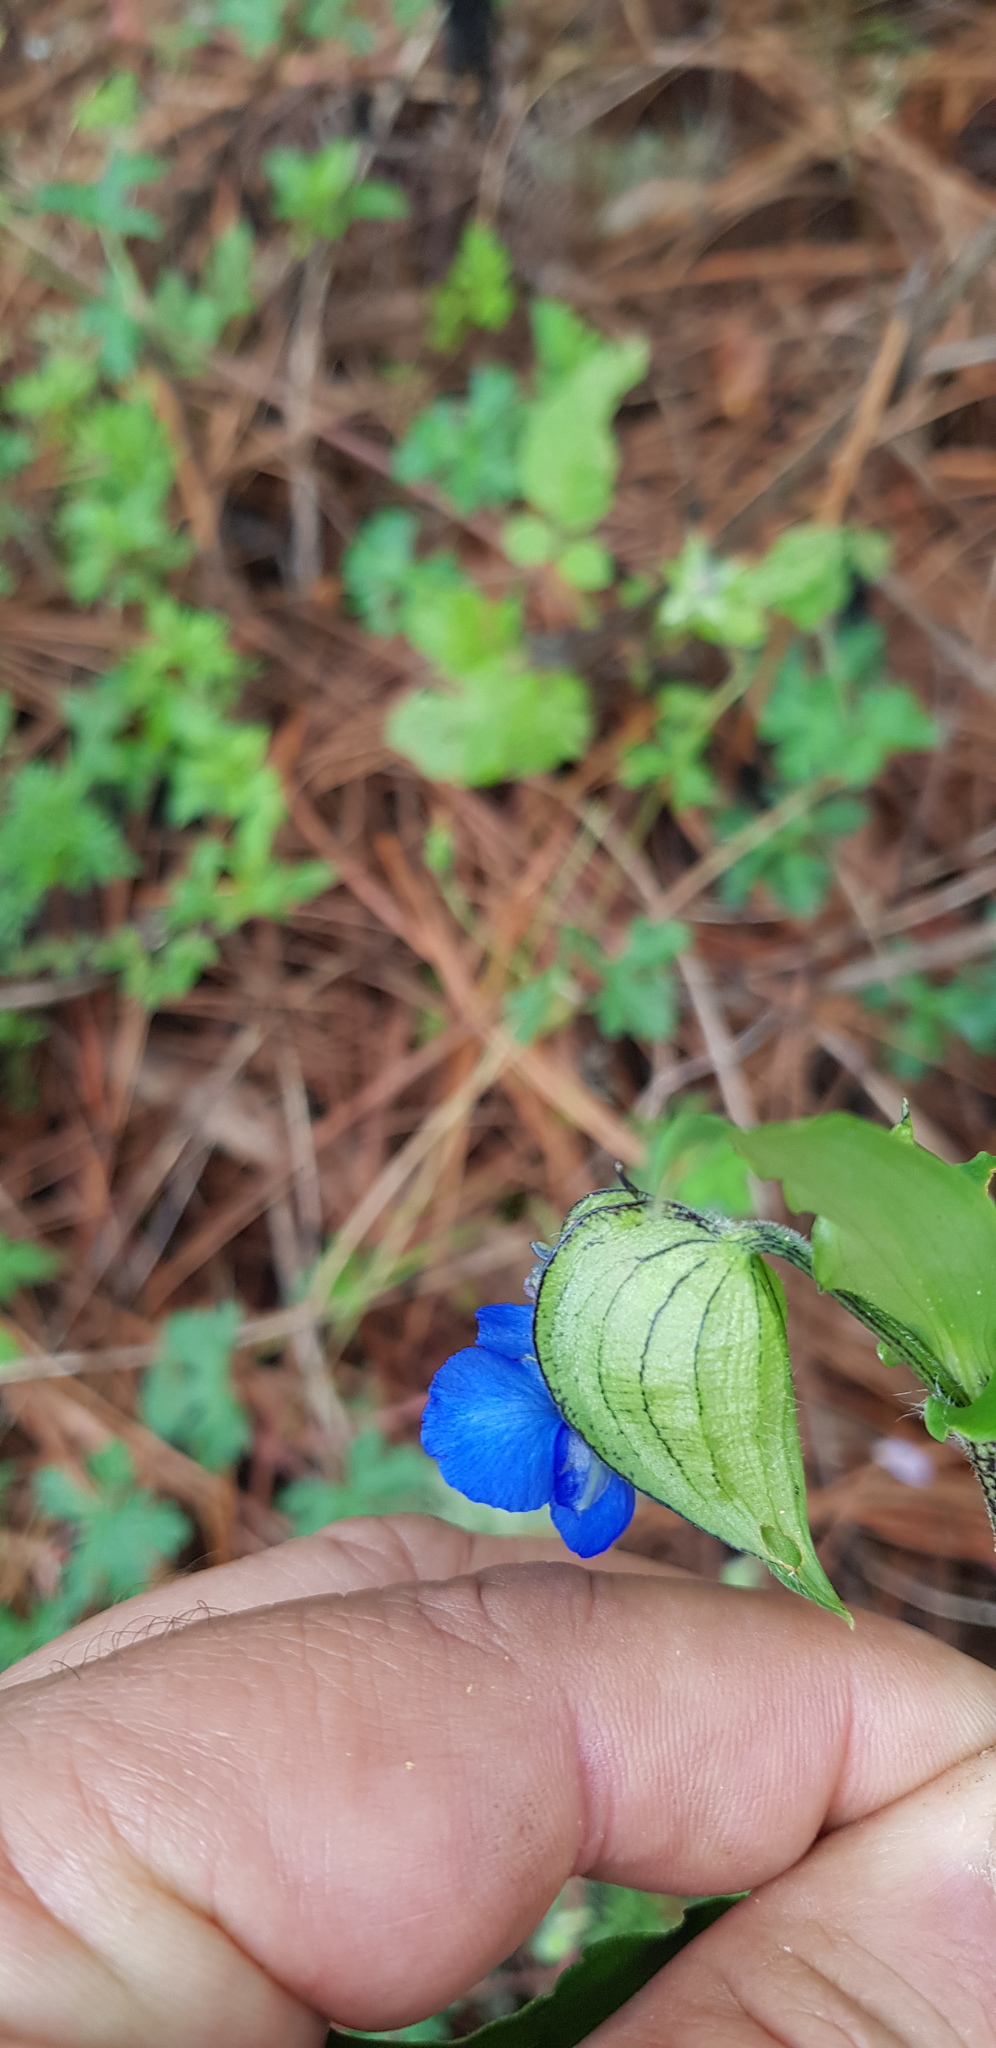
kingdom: Plantae
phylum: Tracheophyta
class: Liliopsida
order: Commelinales
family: Commelinaceae
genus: Commelina
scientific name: Commelina tuberosa
